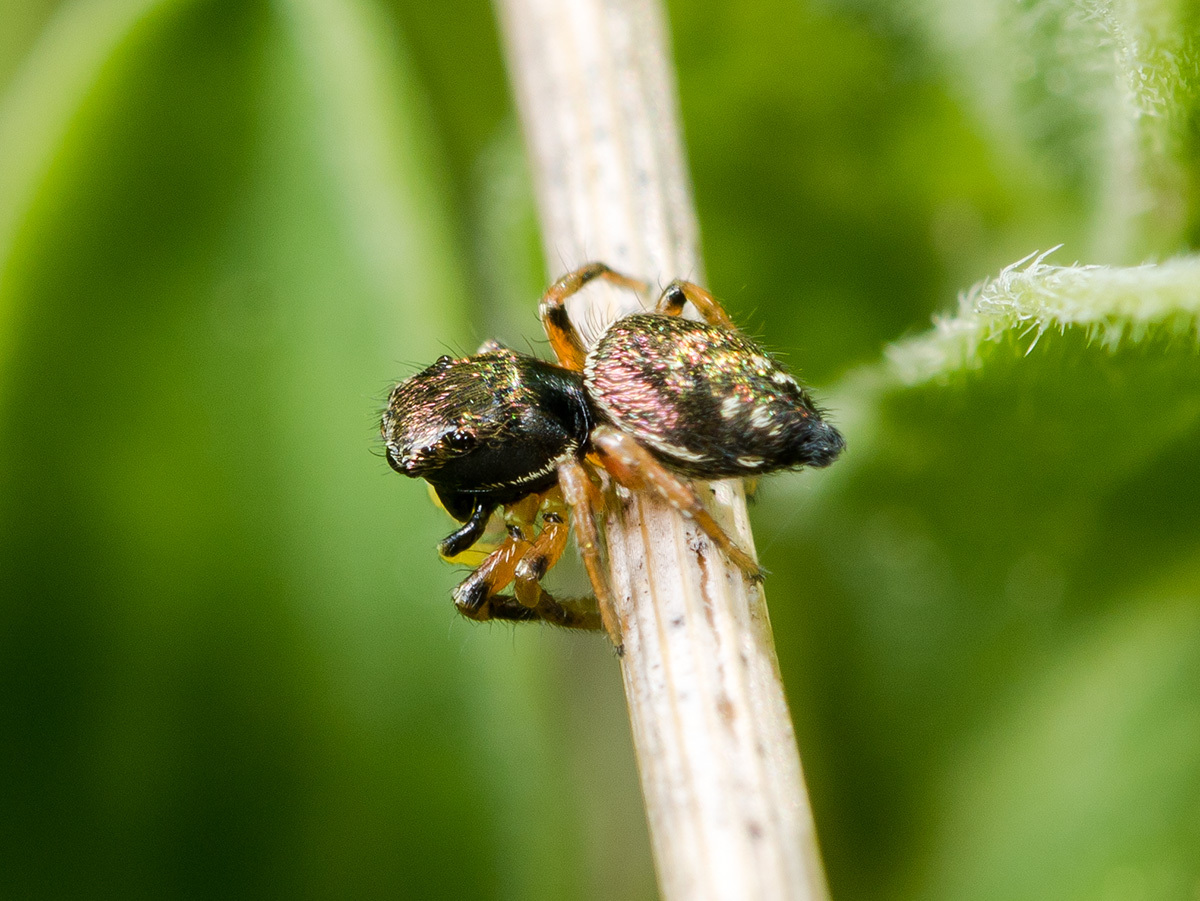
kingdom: Animalia
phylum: Arthropoda
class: Arachnida
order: Araneae
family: Salticidae
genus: Heliophanus
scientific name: Heliophanus wesolowskae
